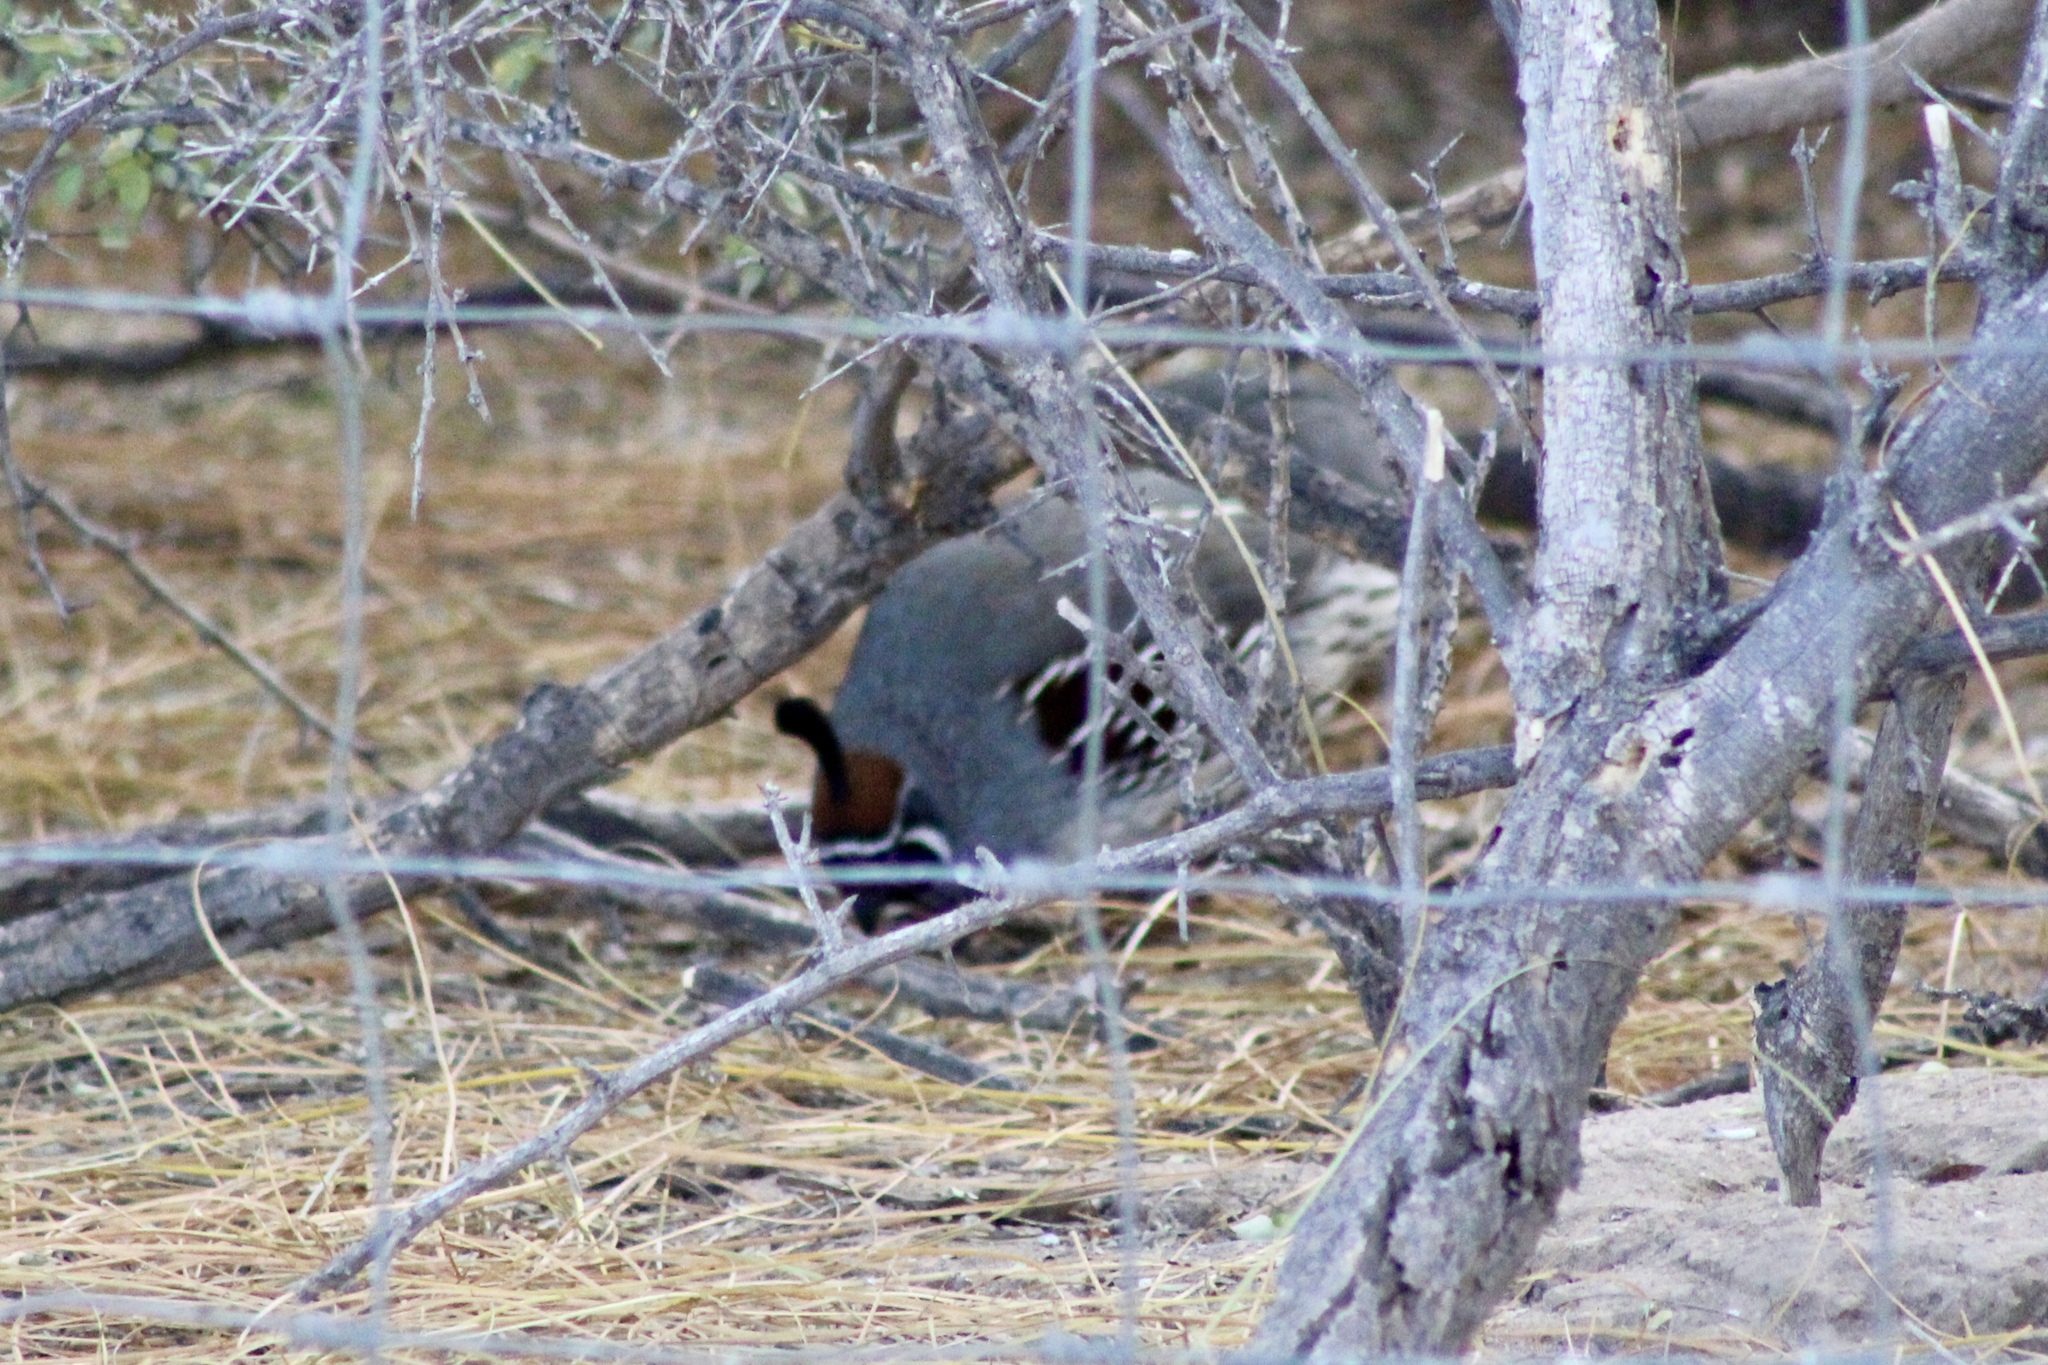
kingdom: Animalia
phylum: Chordata
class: Aves
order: Galliformes
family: Odontophoridae
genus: Callipepla
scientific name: Callipepla gambelii
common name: Gambel's quail
